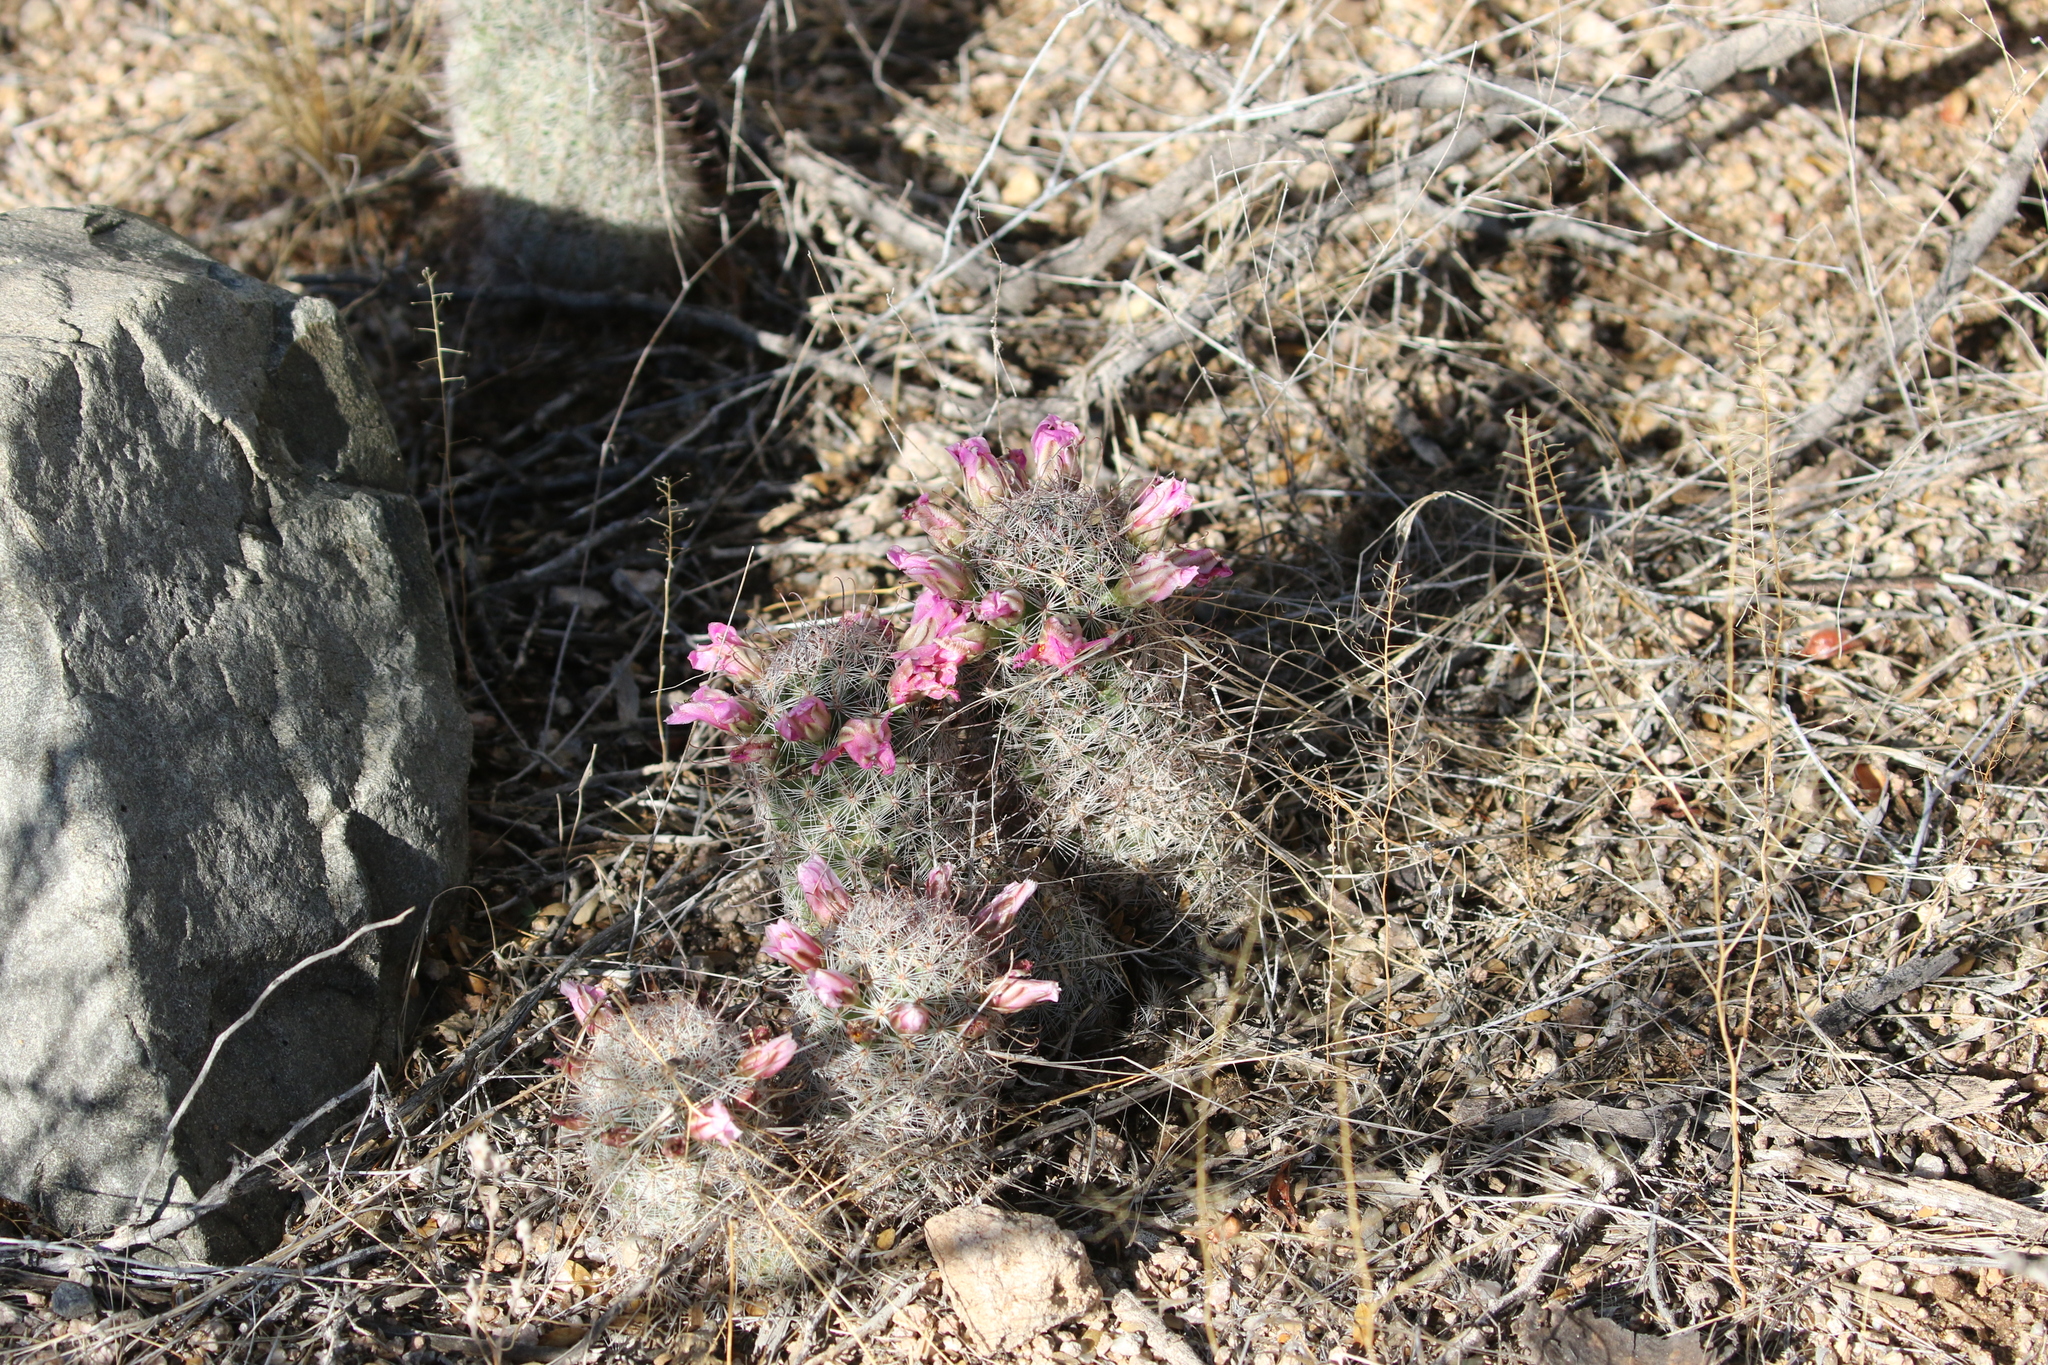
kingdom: Plantae
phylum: Tracheophyta
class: Magnoliopsida
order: Caryophyllales
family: Cactaceae
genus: Cochemiea
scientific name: Cochemiea grahamii
